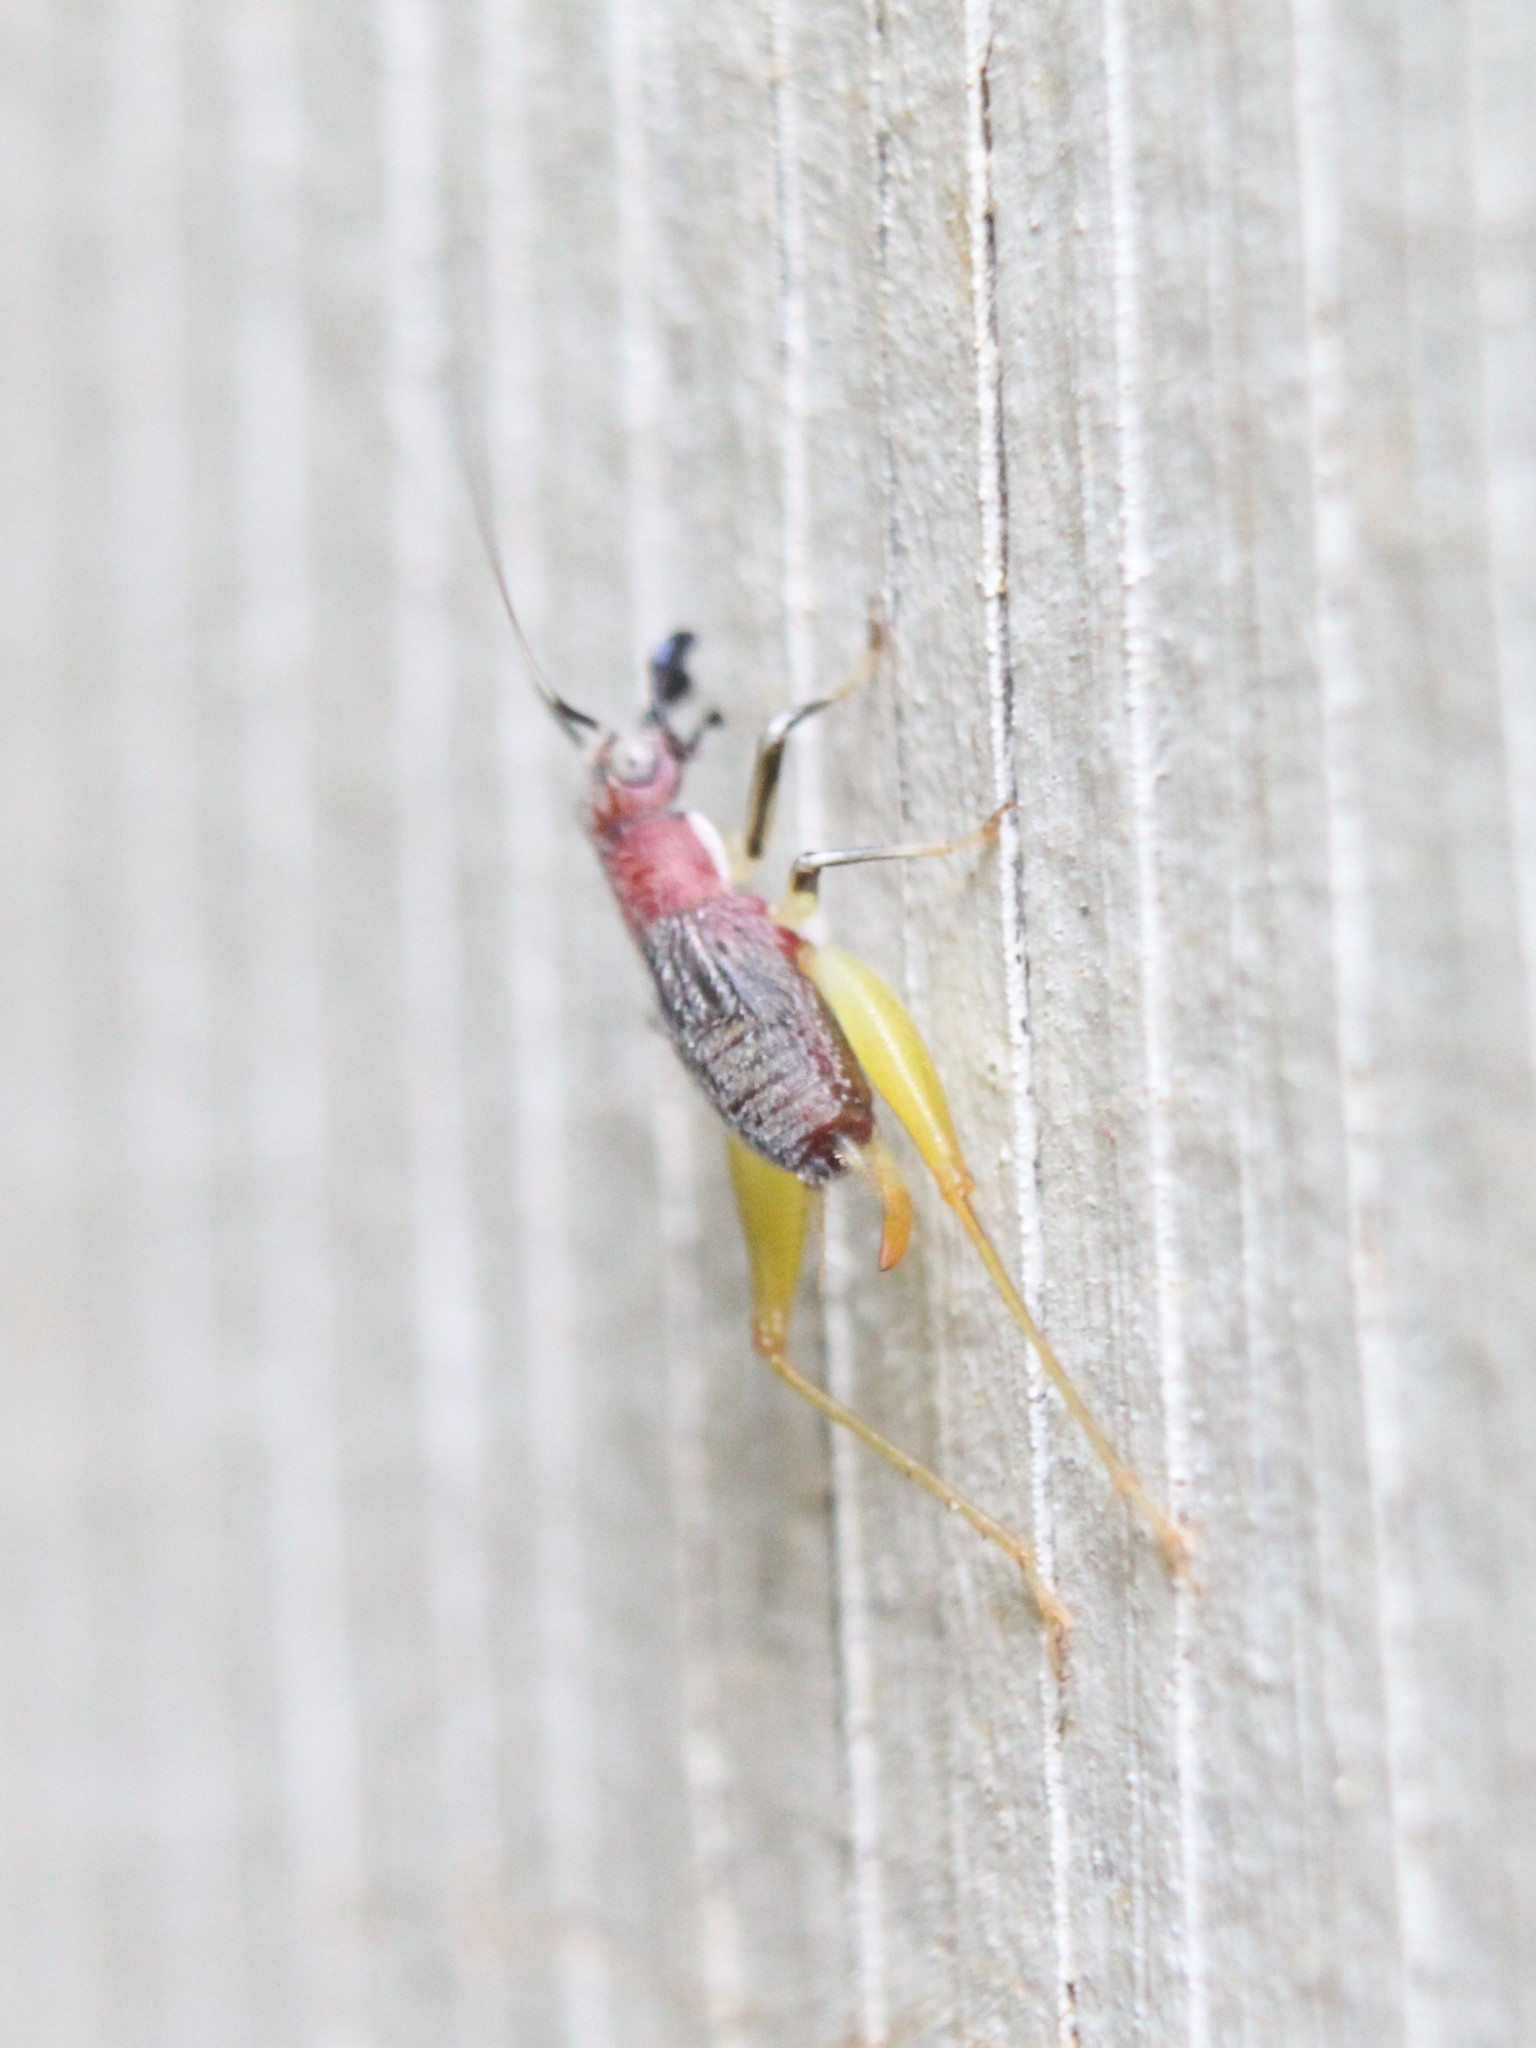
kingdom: Animalia
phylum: Arthropoda
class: Insecta
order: Orthoptera
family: Trigonidiidae
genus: Phyllopalpus
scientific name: Phyllopalpus pulchellus
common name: Handsome trig
